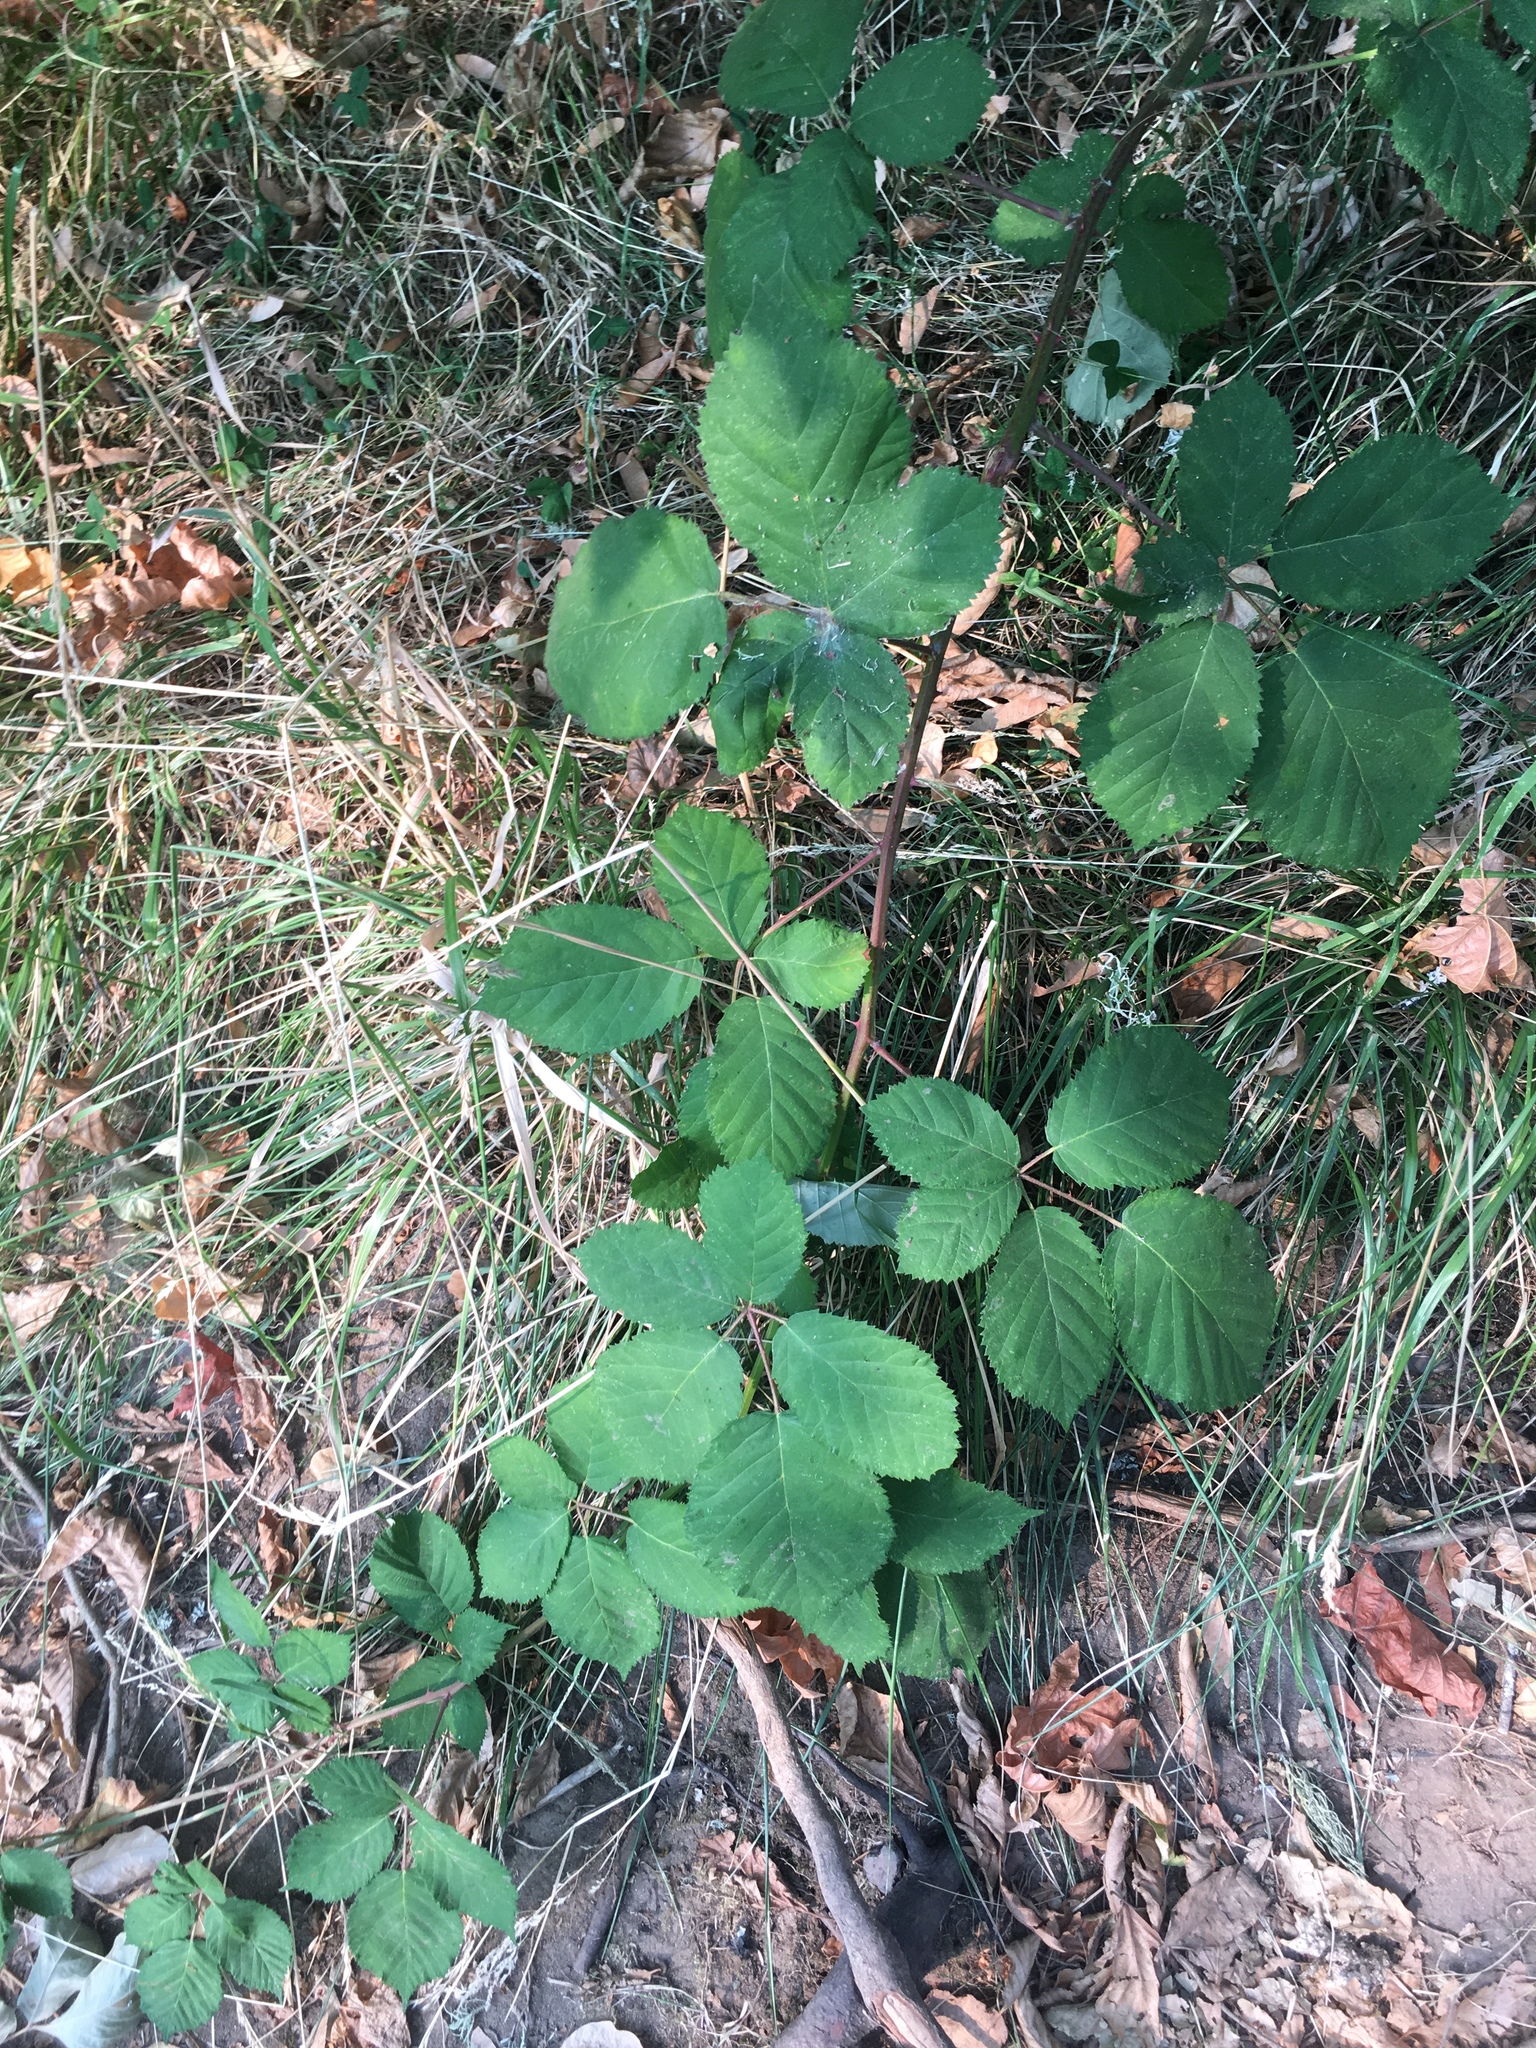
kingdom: Plantae
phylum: Tracheophyta
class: Magnoliopsida
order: Rosales
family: Rosaceae
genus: Rubus
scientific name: Rubus bifrons
